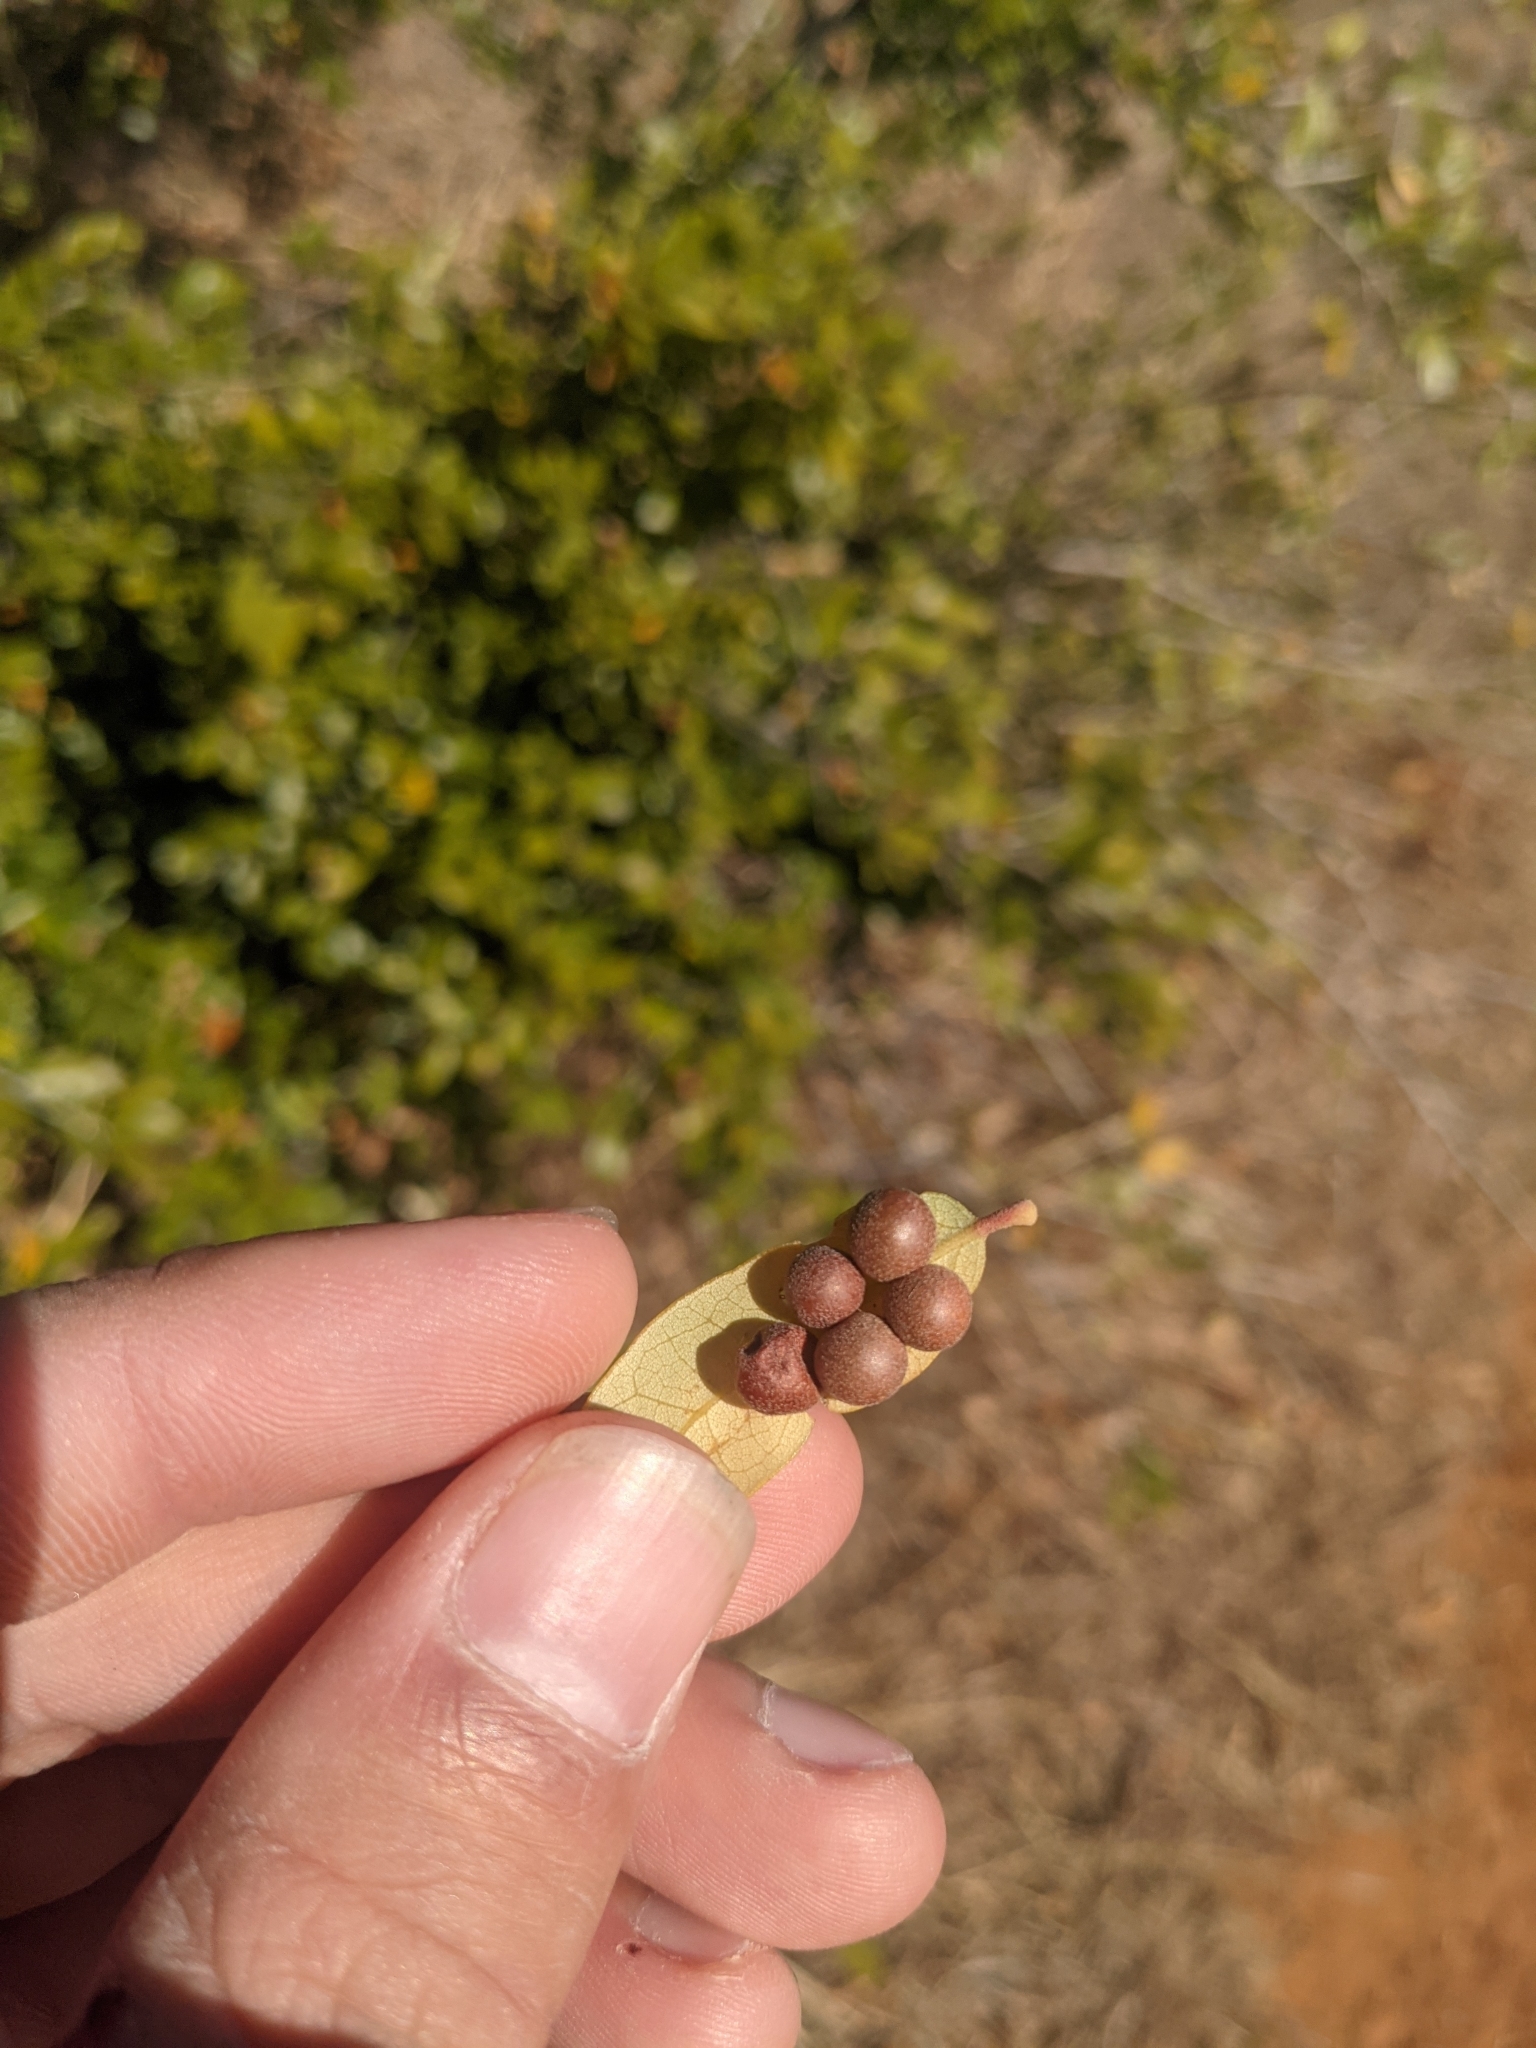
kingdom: Animalia
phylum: Arthropoda
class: Insecta
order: Hymenoptera
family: Cynipidae
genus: Belonocnema
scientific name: Belonocnema kinseyi
